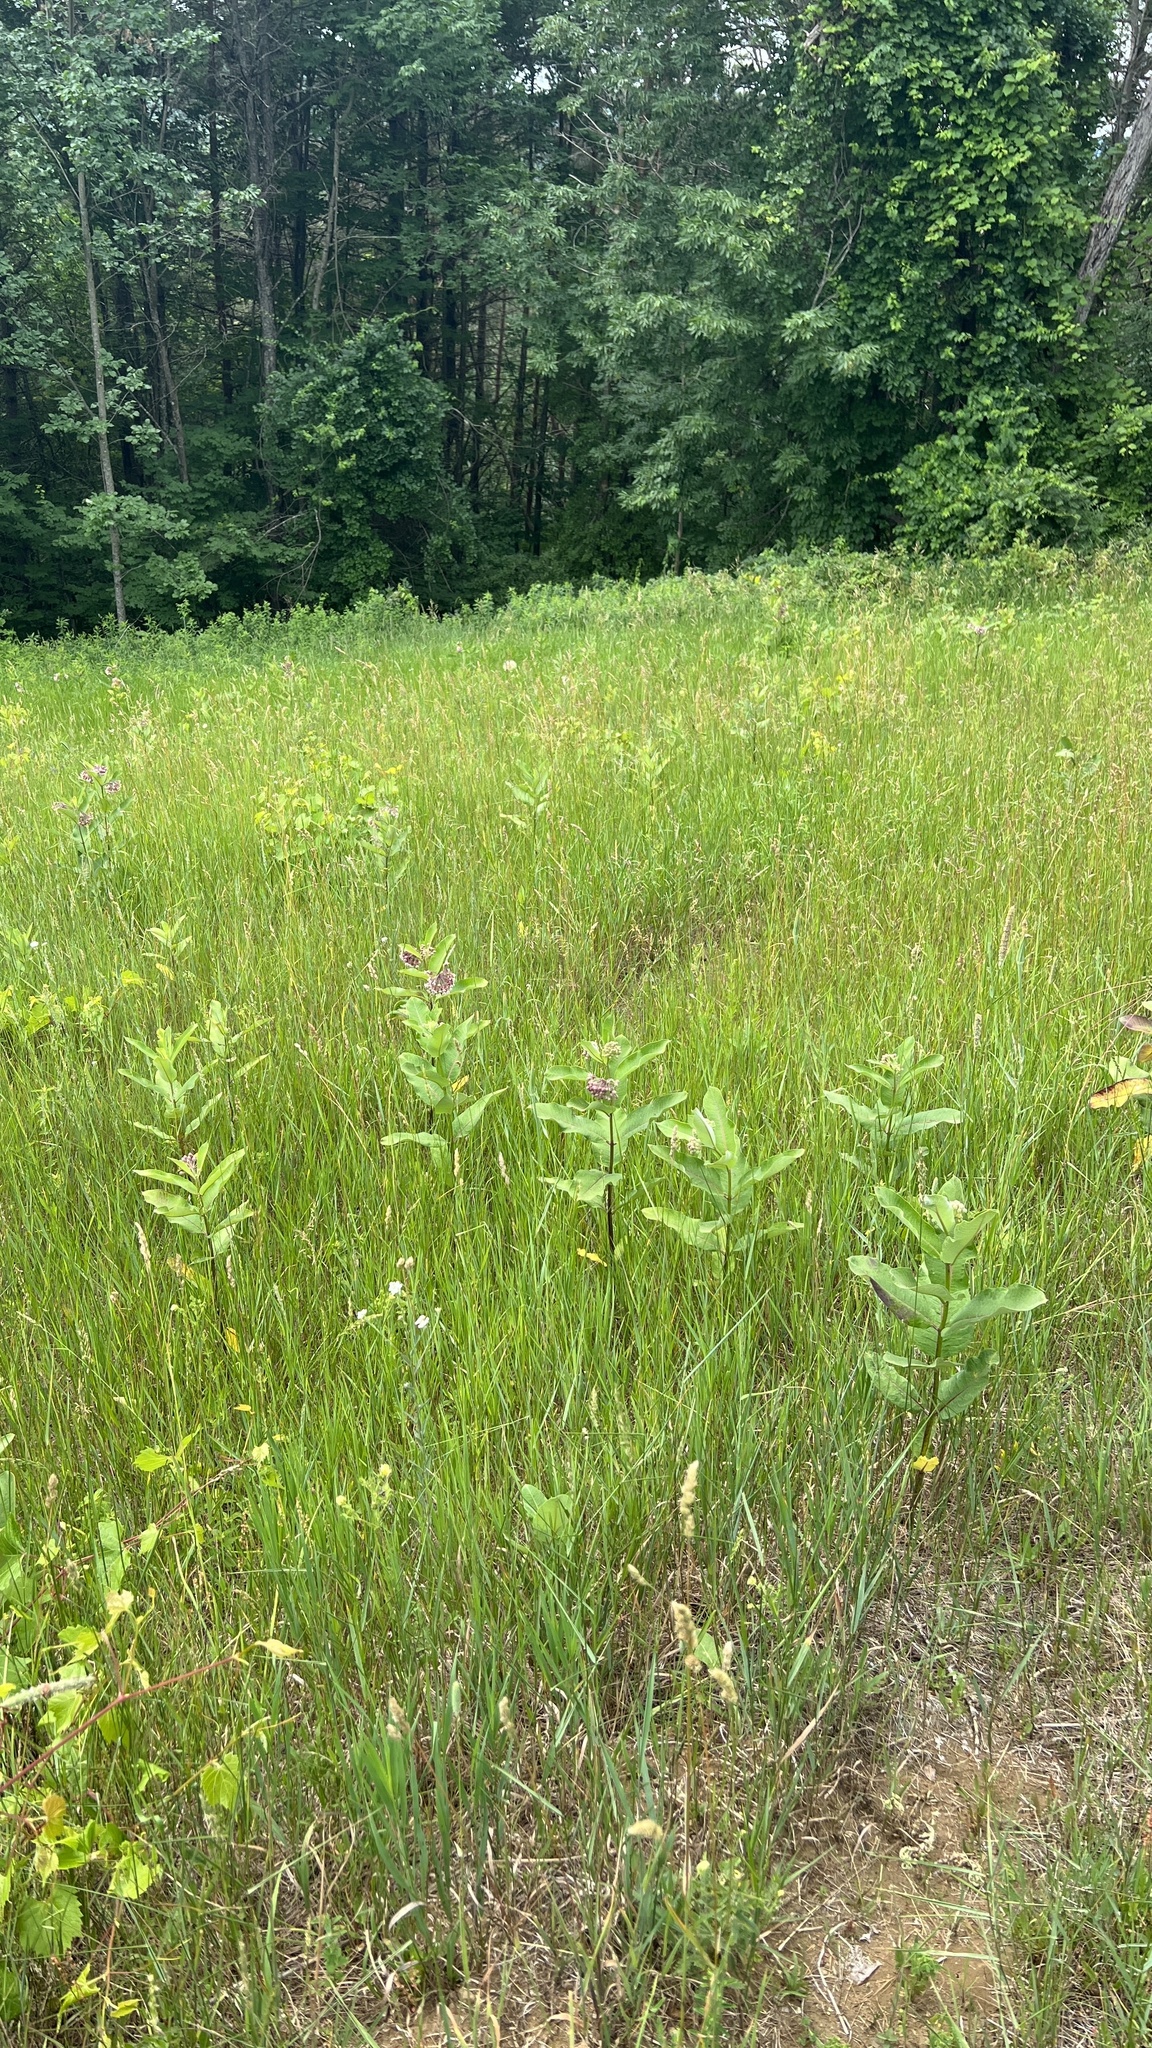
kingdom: Plantae
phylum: Tracheophyta
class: Magnoliopsida
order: Gentianales
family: Apocynaceae
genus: Asclepias
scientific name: Asclepias syriaca
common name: Common milkweed
